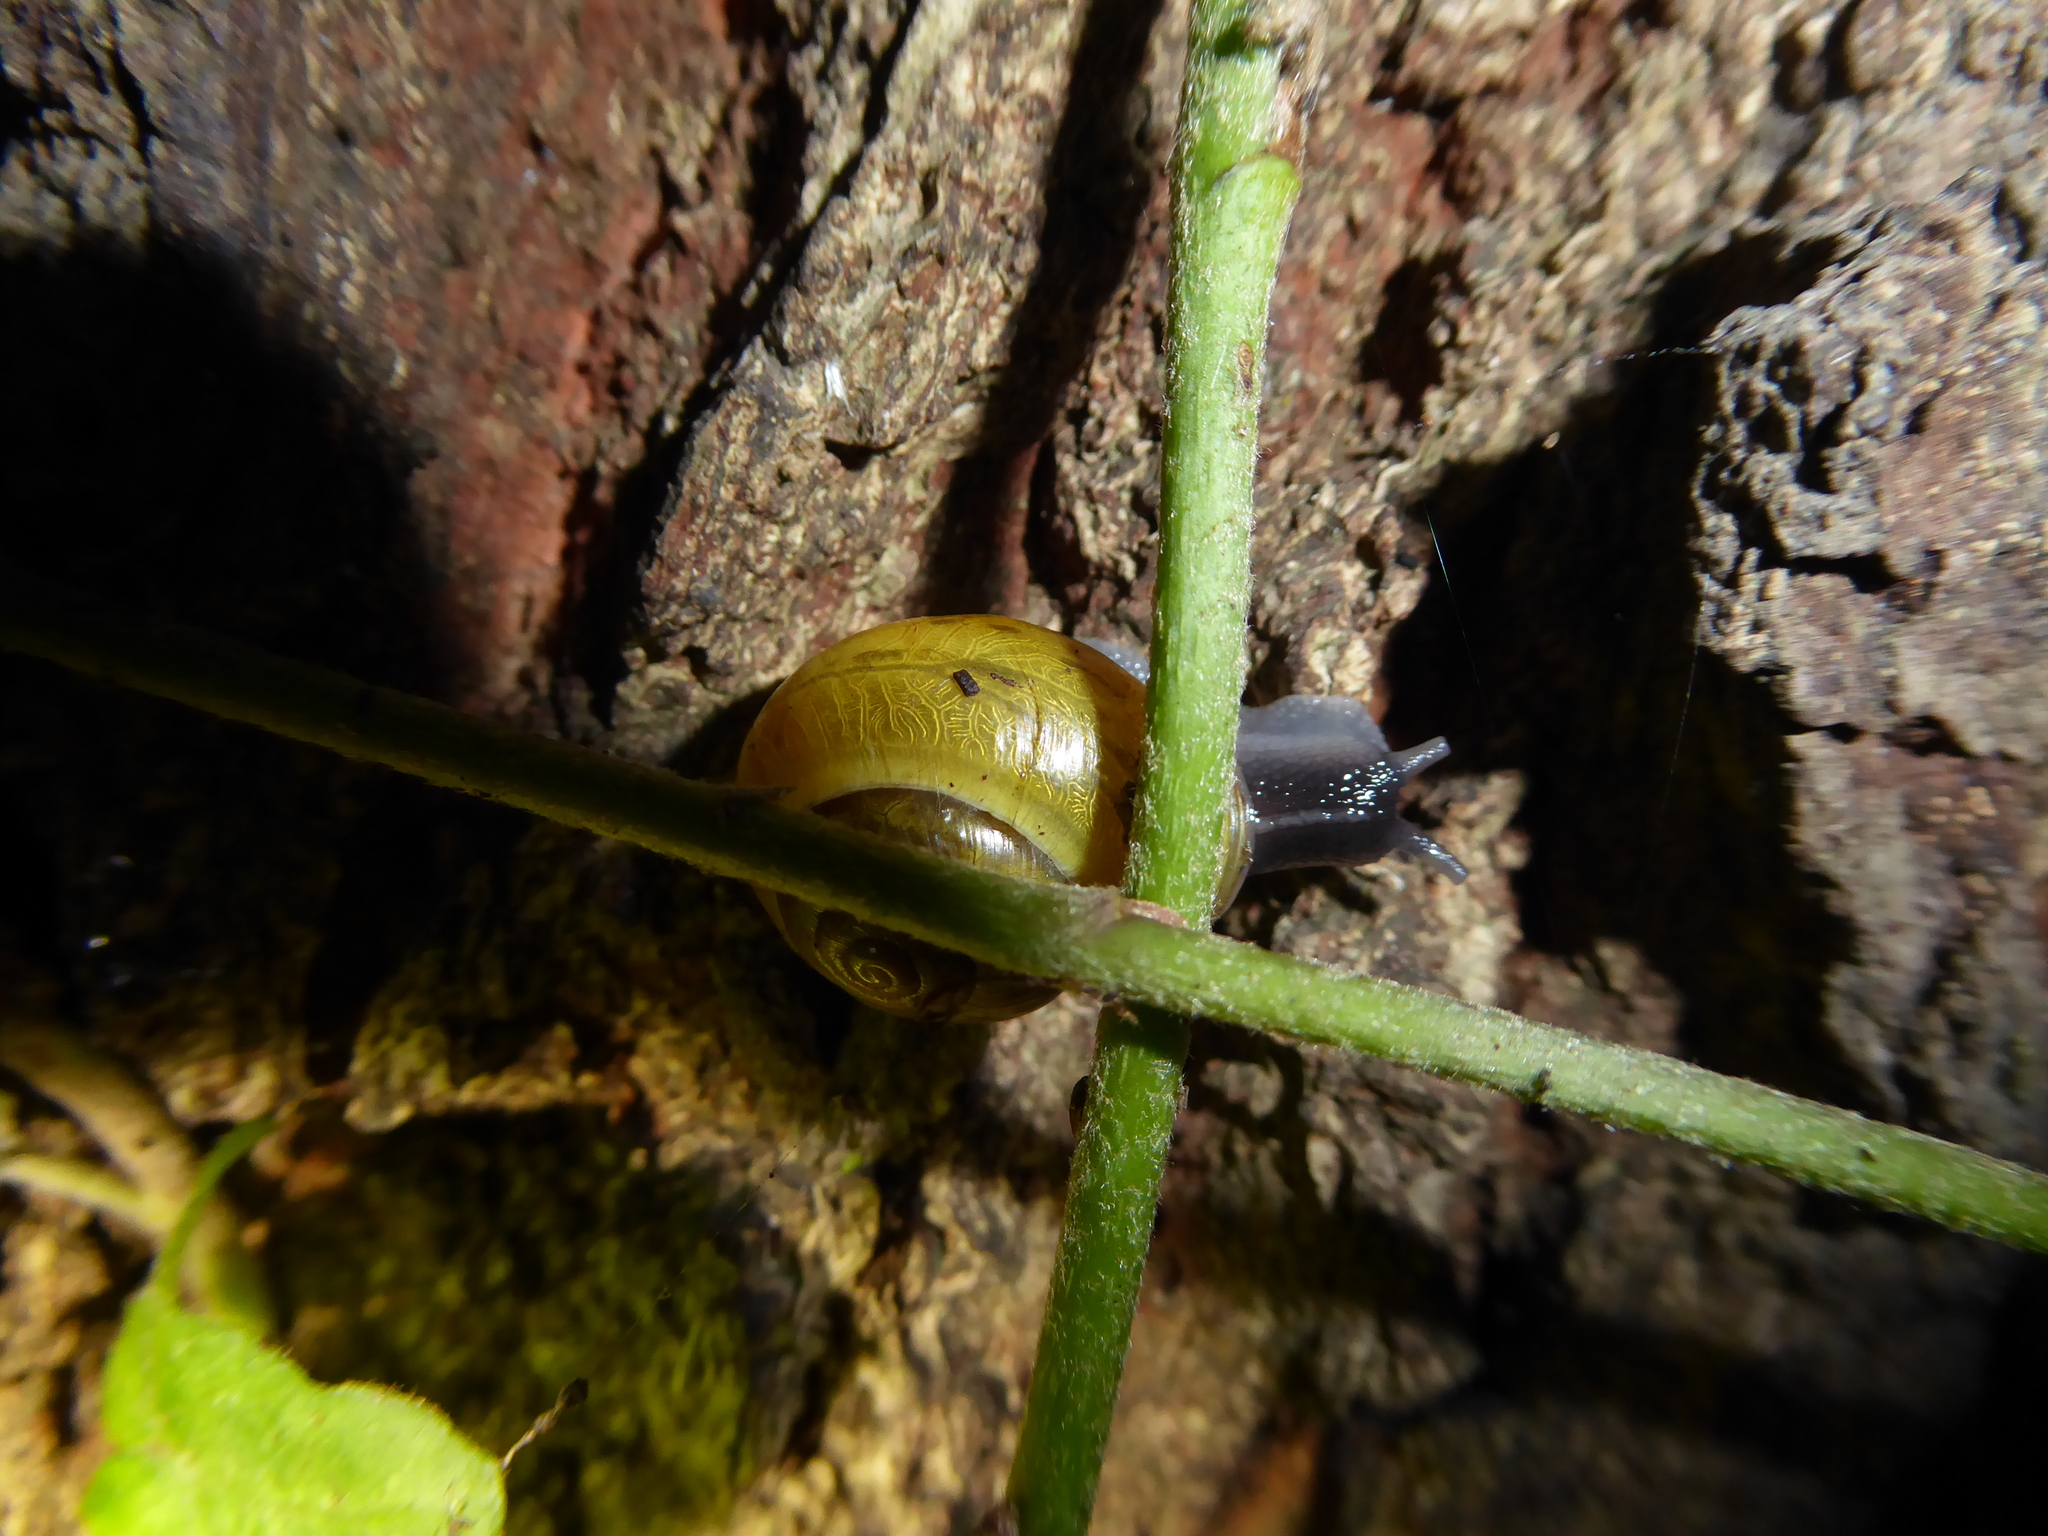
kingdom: Animalia
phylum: Mollusca
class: Gastropoda
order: Stylommatophora
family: Helicidae
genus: Cepaea
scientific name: Cepaea
